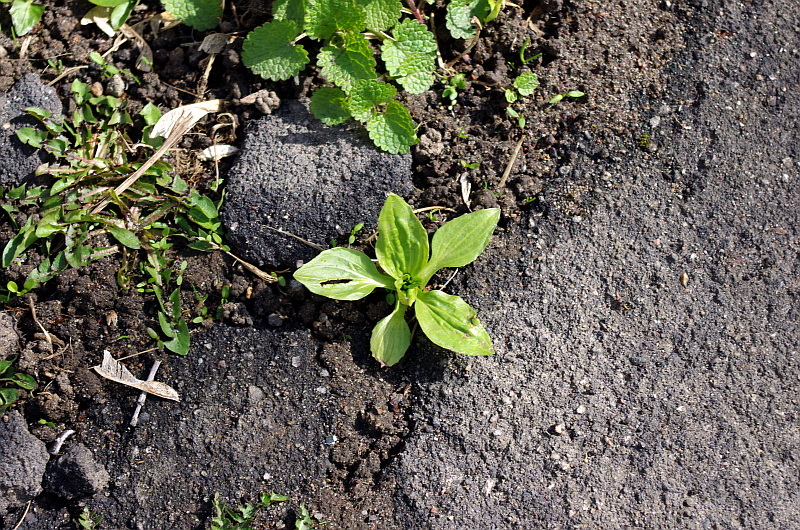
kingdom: Plantae
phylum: Tracheophyta
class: Magnoliopsida
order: Lamiales
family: Plantaginaceae
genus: Plantago
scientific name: Plantago major
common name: Common plantain
